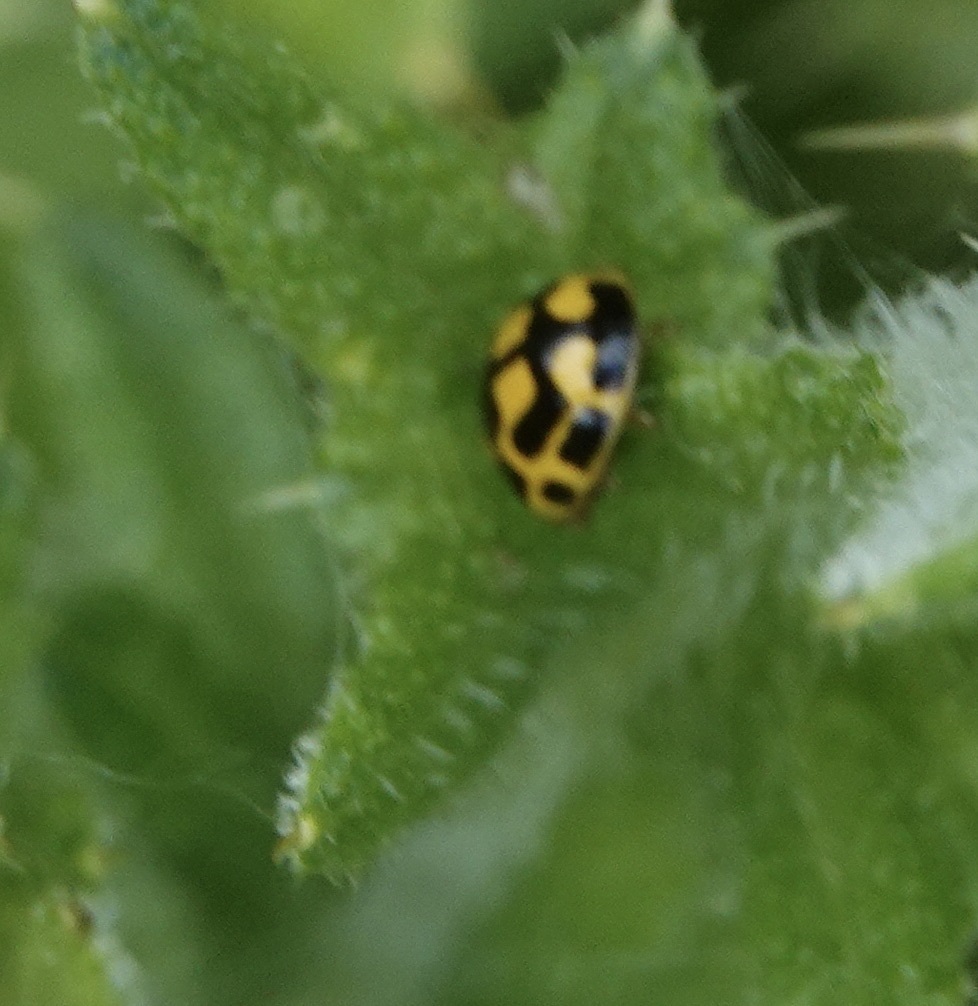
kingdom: Animalia
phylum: Arthropoda
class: Insecta
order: Coleoptera
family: Coccinellidae
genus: Propylaea
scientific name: Propylaea quatuordecimpunctata
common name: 14-spotted ladybird beetle
